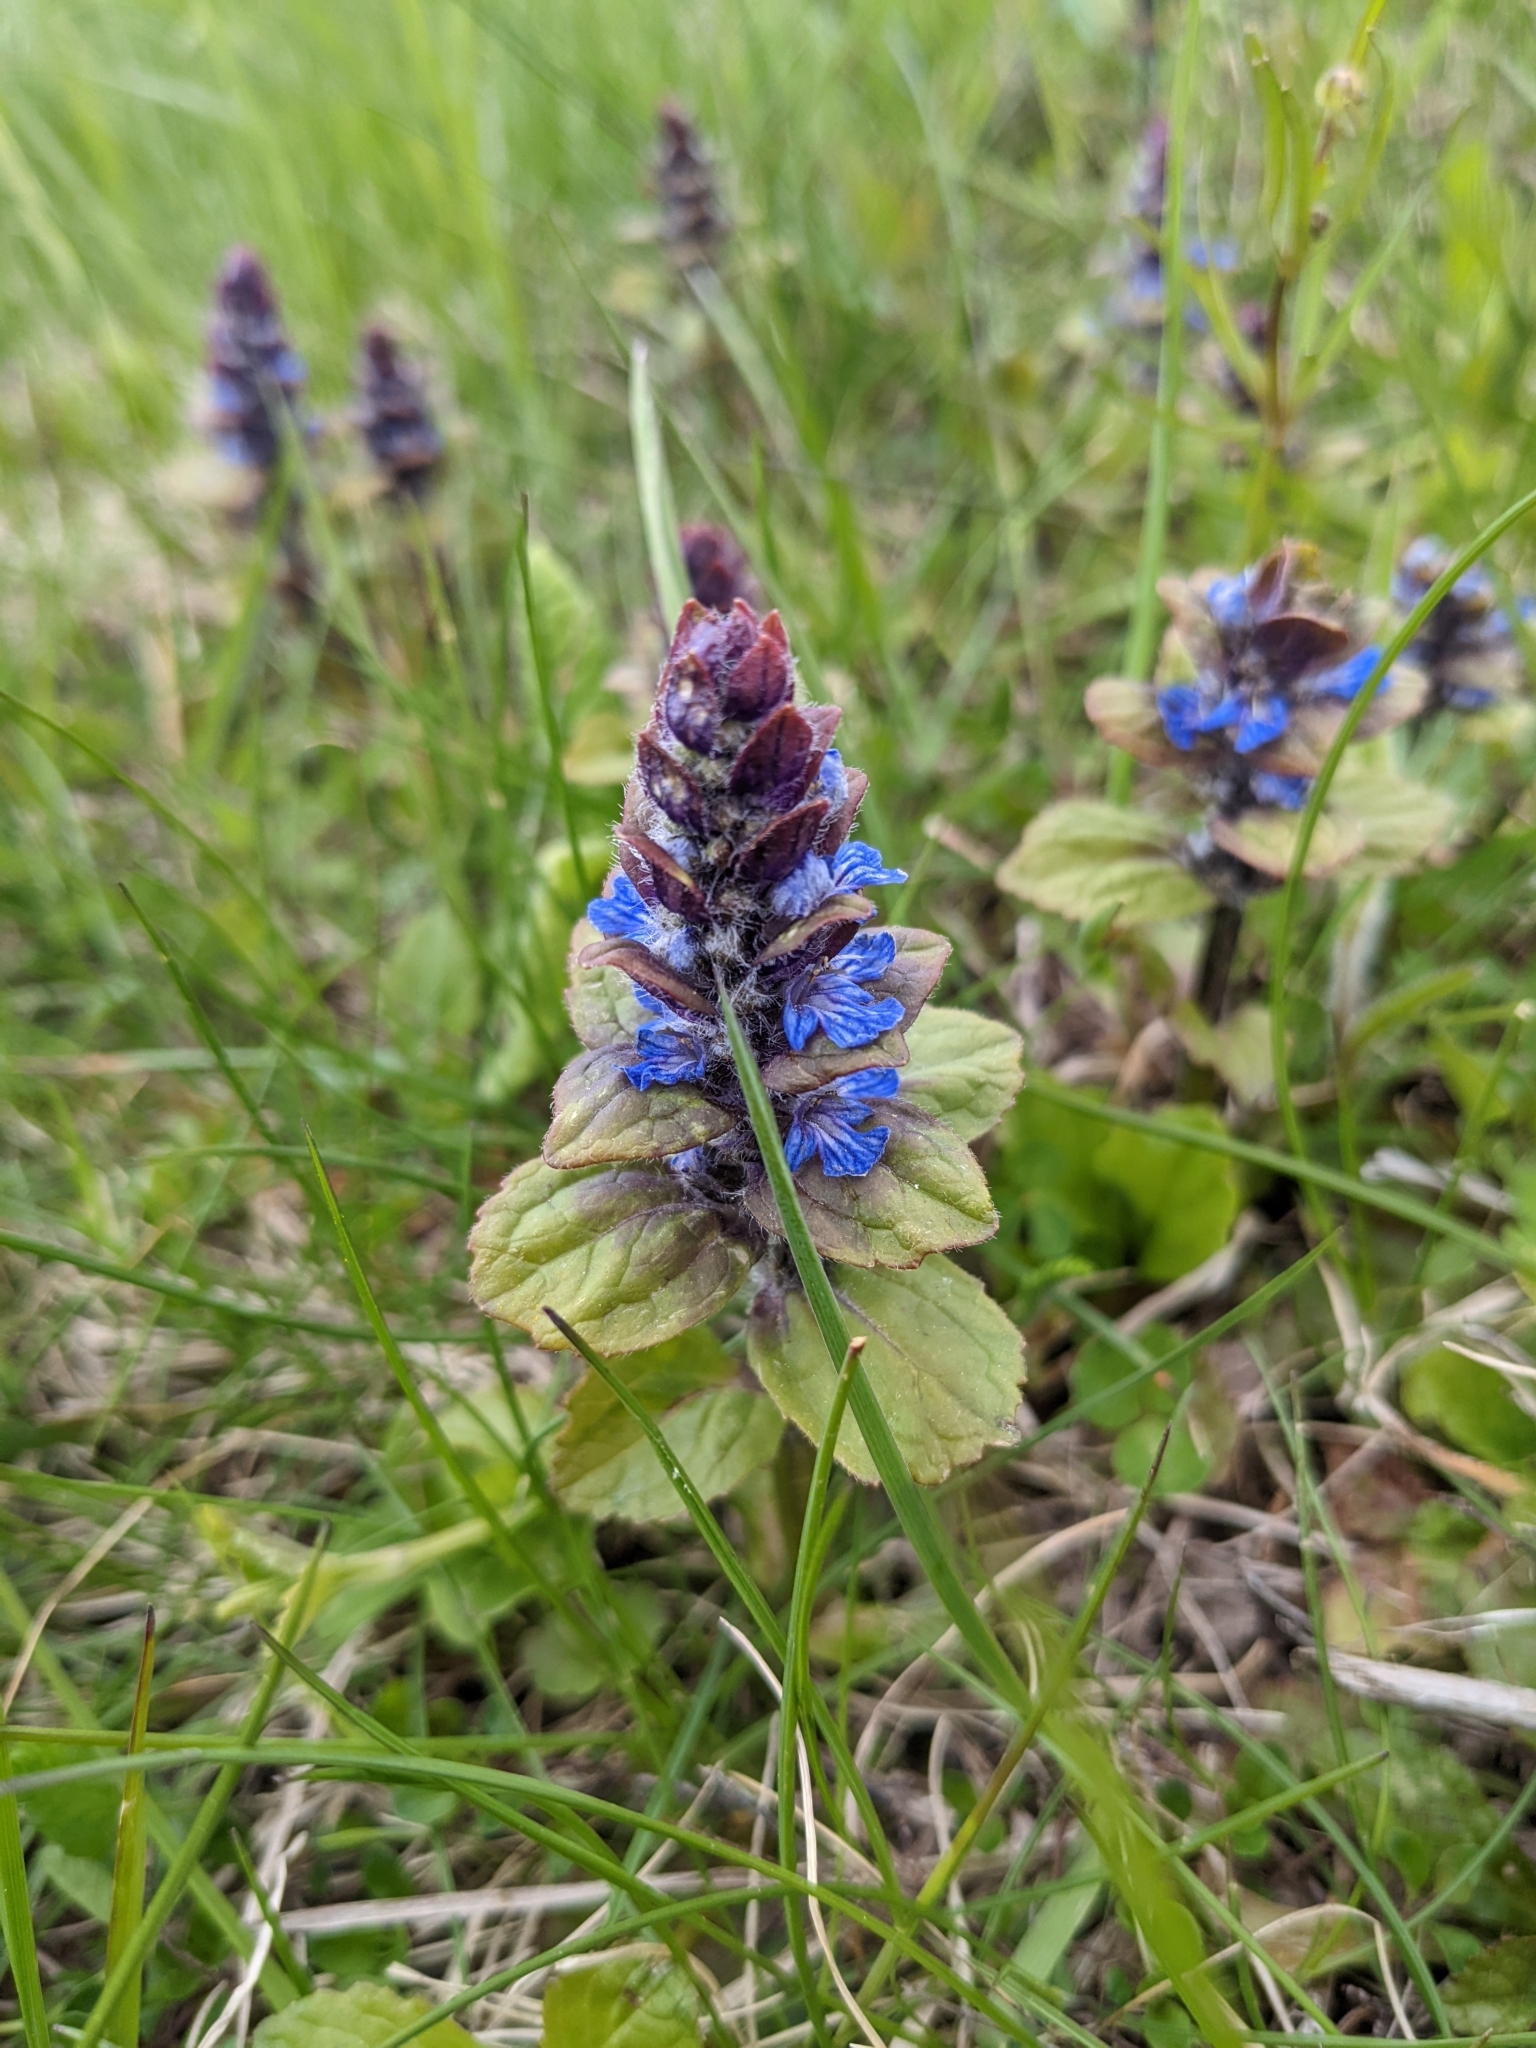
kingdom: Plantae
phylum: Tracheophyta
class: Magnoliopsida
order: Lamiales
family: Lamiaceae
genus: Ajuga
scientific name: Ajuga reptans
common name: Bugle
